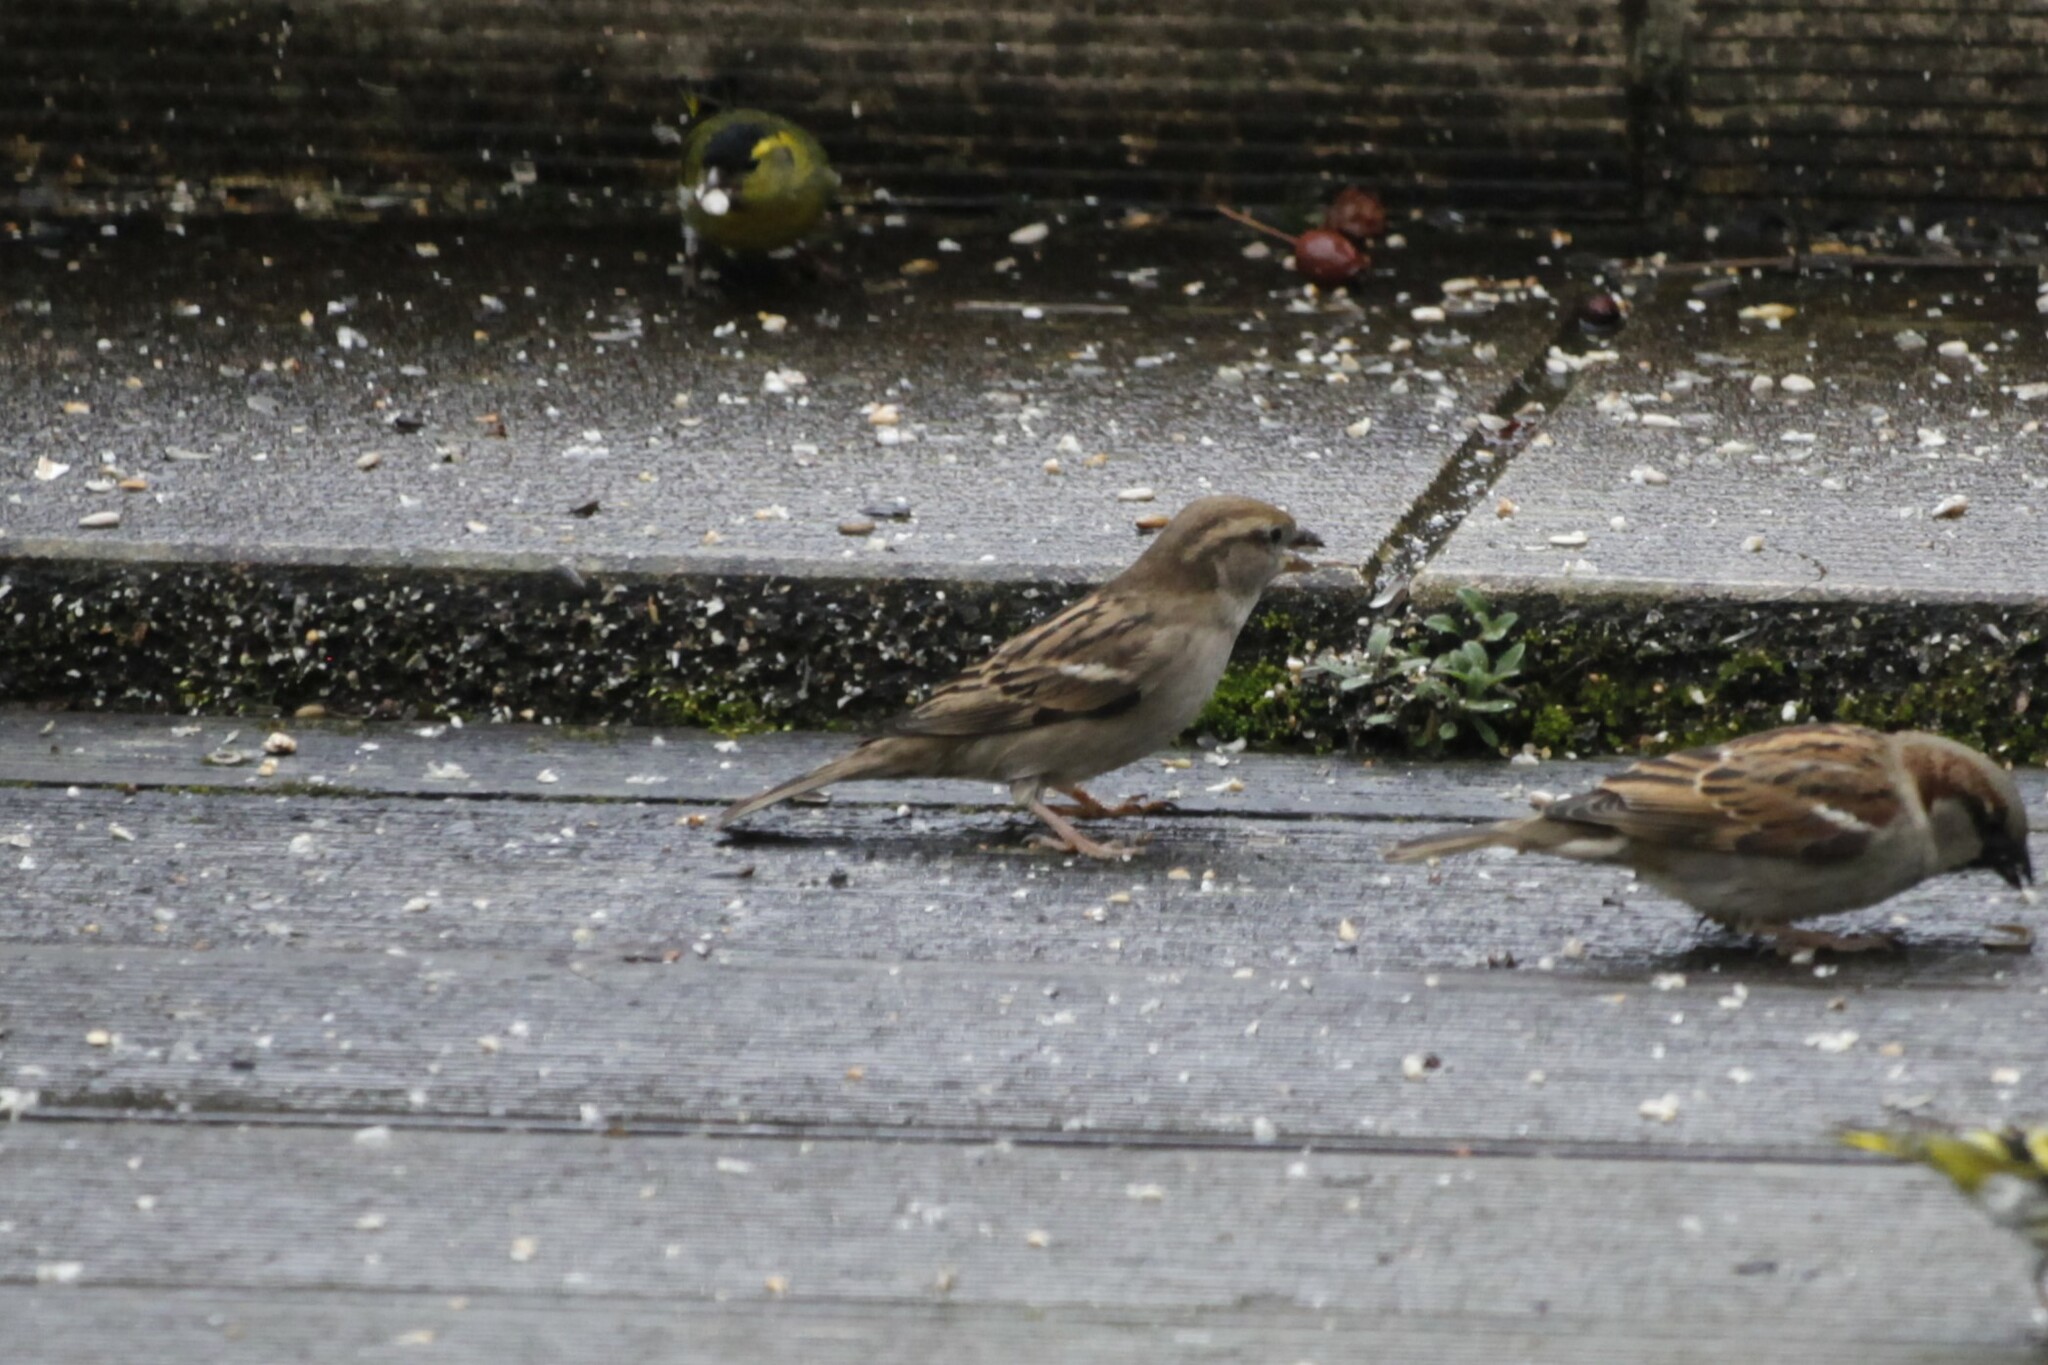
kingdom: Animalia
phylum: Chordata
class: Aves
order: Passeriformes
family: Passeridae
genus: Passer
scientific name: Passer domesticus
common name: House sparrow
